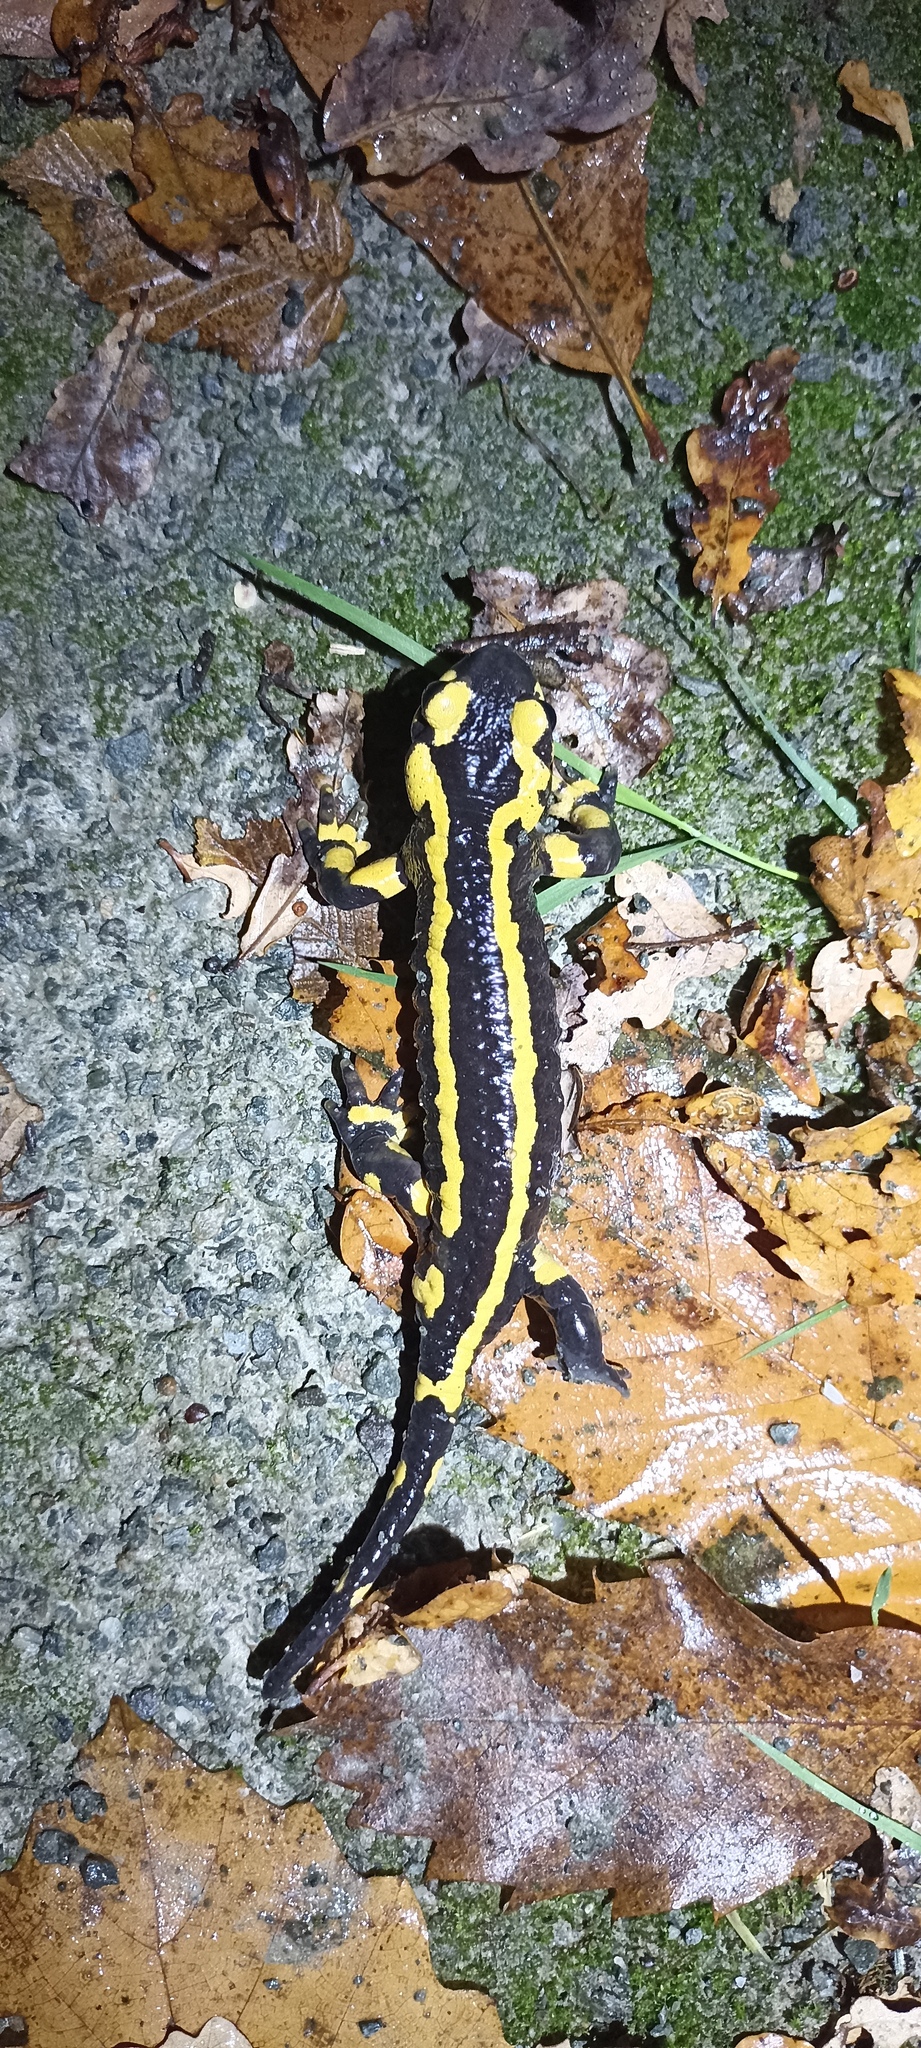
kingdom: Animalia
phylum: Chordata
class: Amphibia
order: Caudata
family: Salamandridae
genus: Salamandra
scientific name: Salamandra salamandra
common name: Fire salamander
